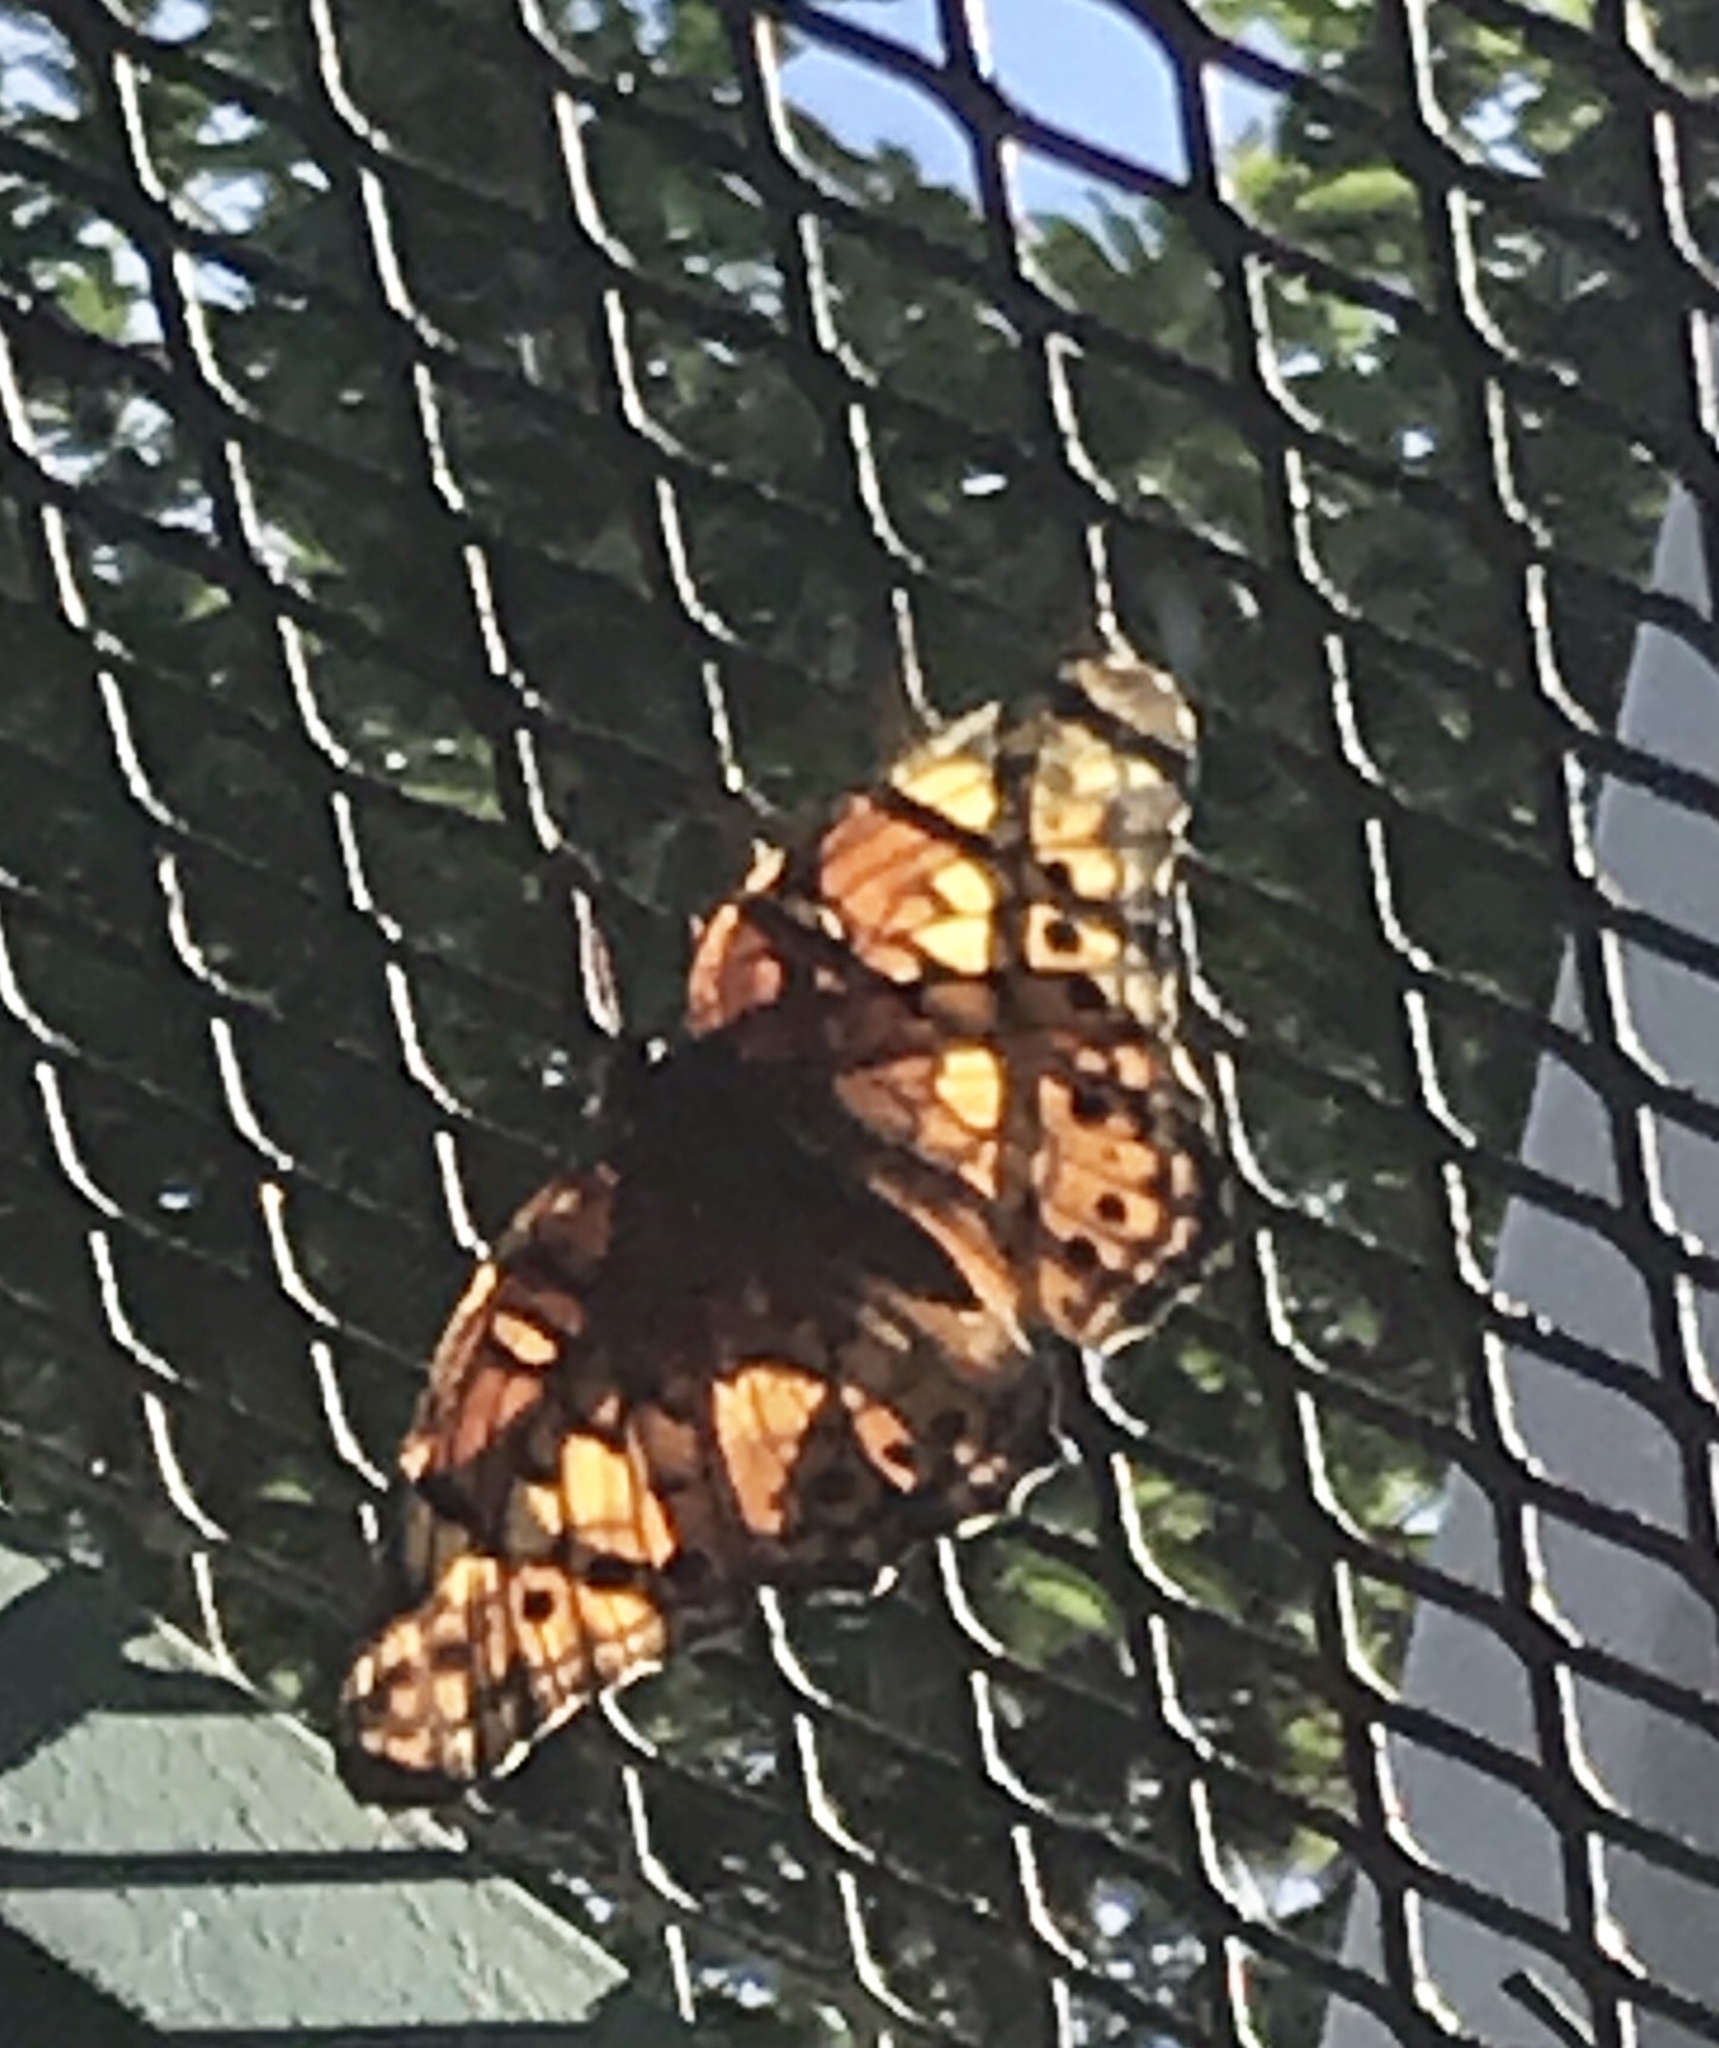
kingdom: Animalia
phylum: Arthropoda
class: Insecta
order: Lepidoptera
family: Nymphalidae
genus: Euptoieta
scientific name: Euptoieta claudia
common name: Variegated fritillary
